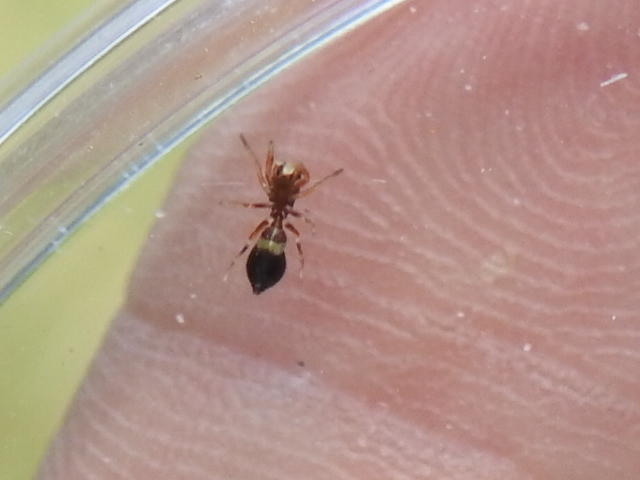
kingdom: Animalia
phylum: Arthropoda
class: Arachnida
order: Araneae
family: Salticidae
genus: Peckhamia
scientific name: Peckhamia
